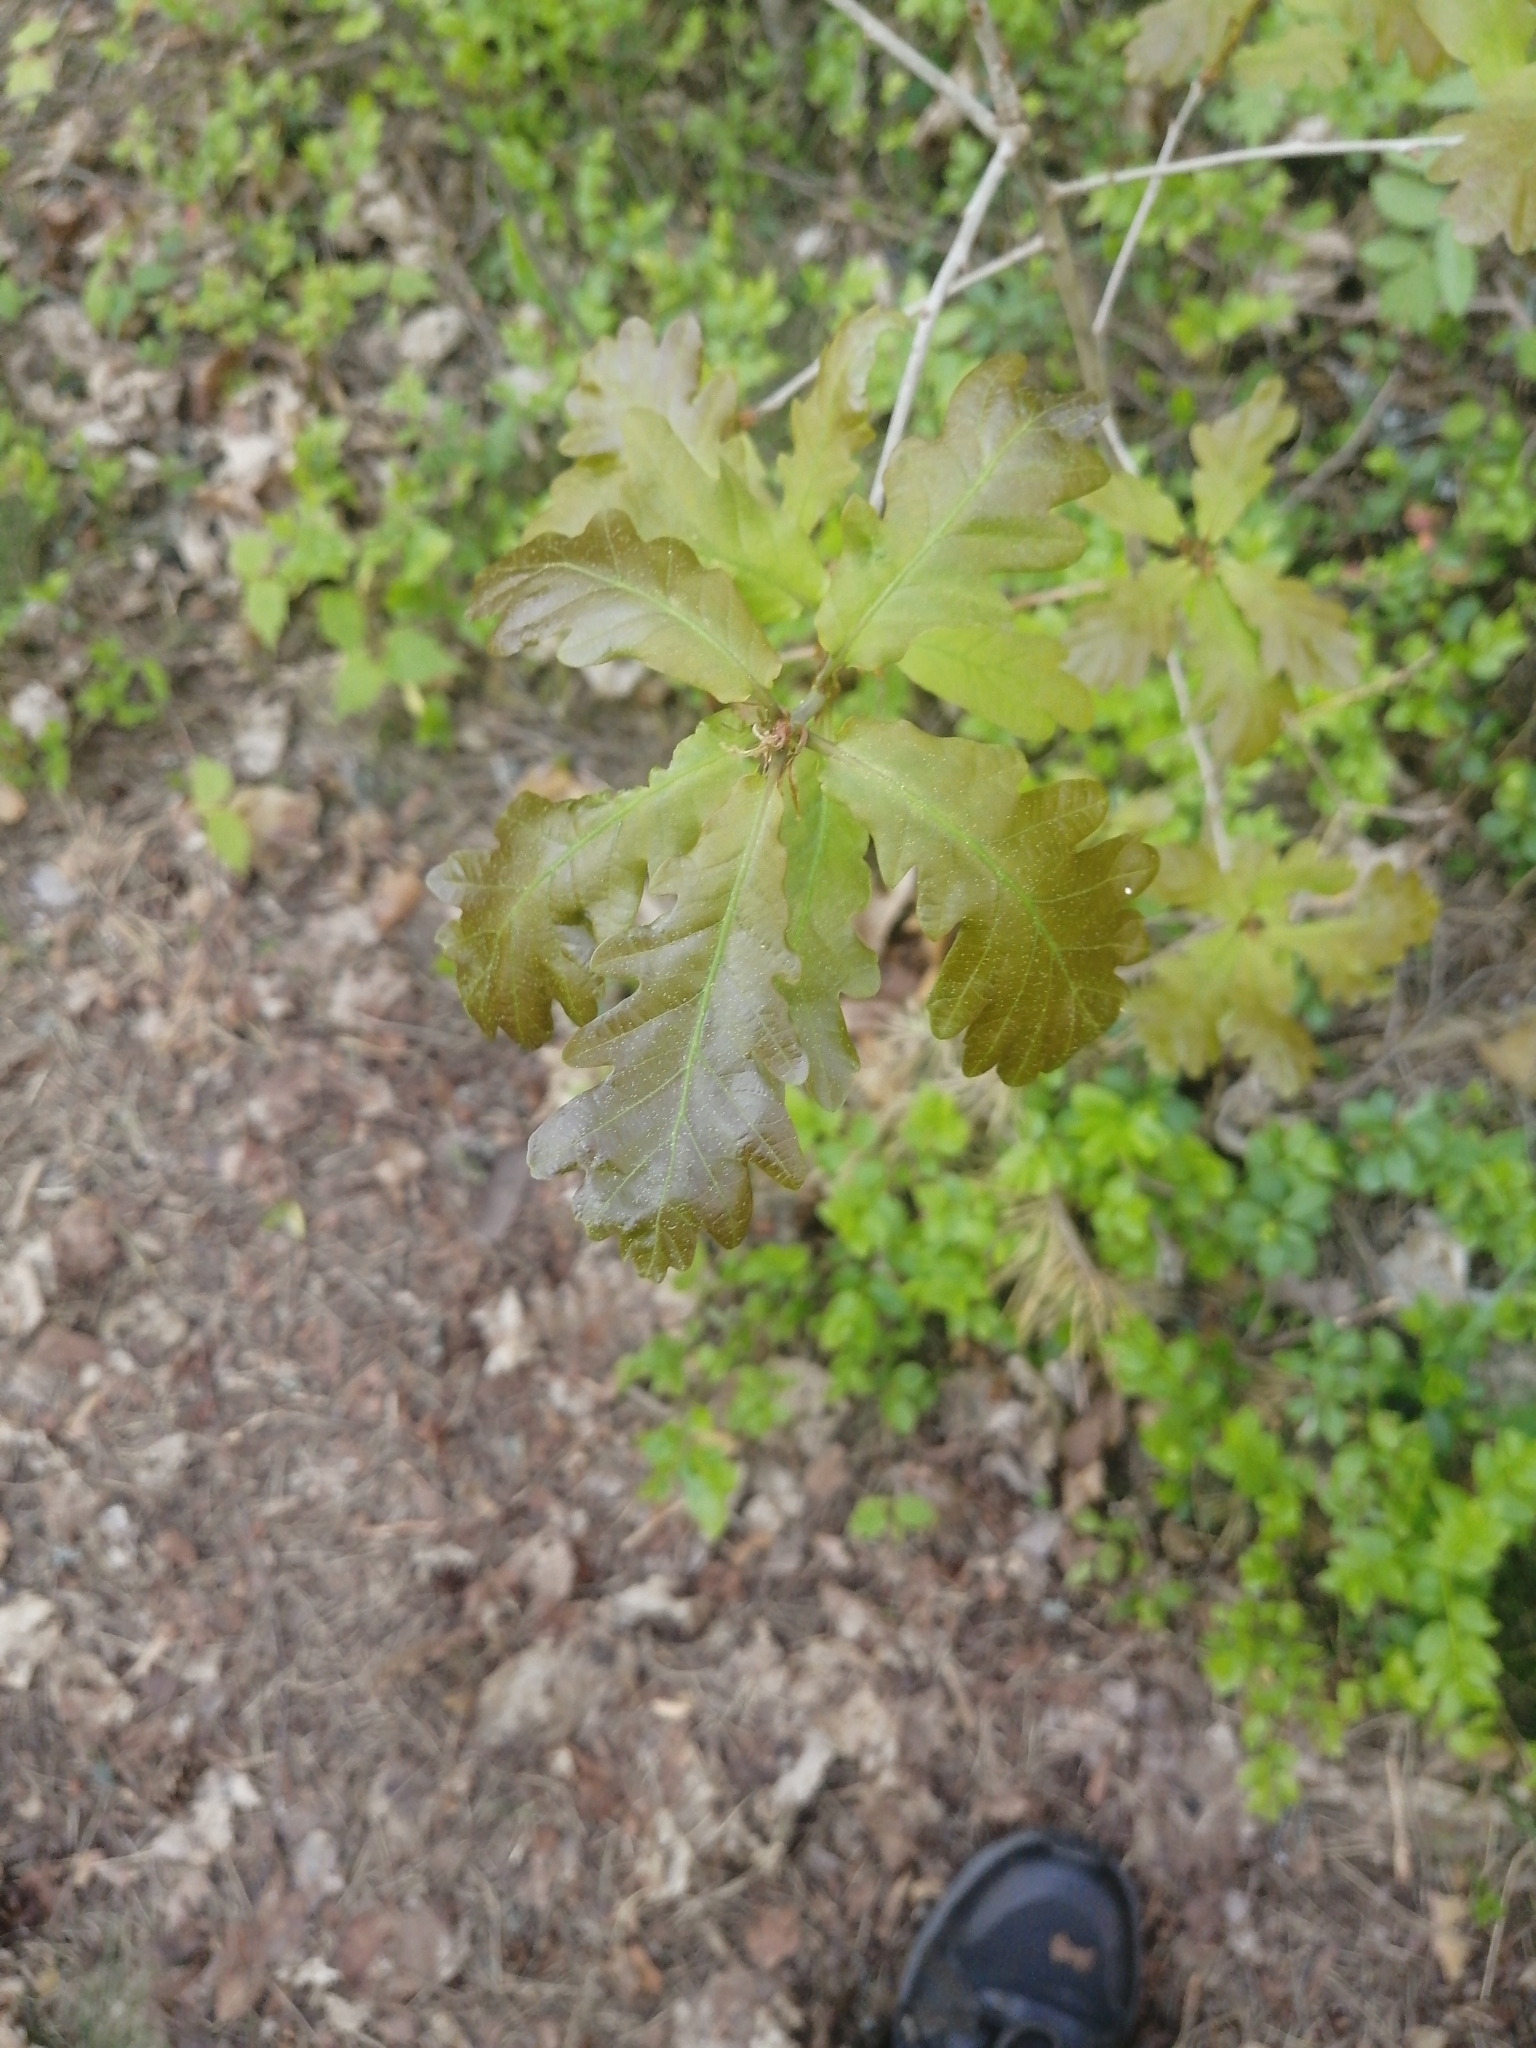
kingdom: Plantae
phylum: Tracheophyta
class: Magnoliopsida
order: Fagales
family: Fagaceae
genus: Quercus
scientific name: Quercus robur
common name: Pedunculate oak
